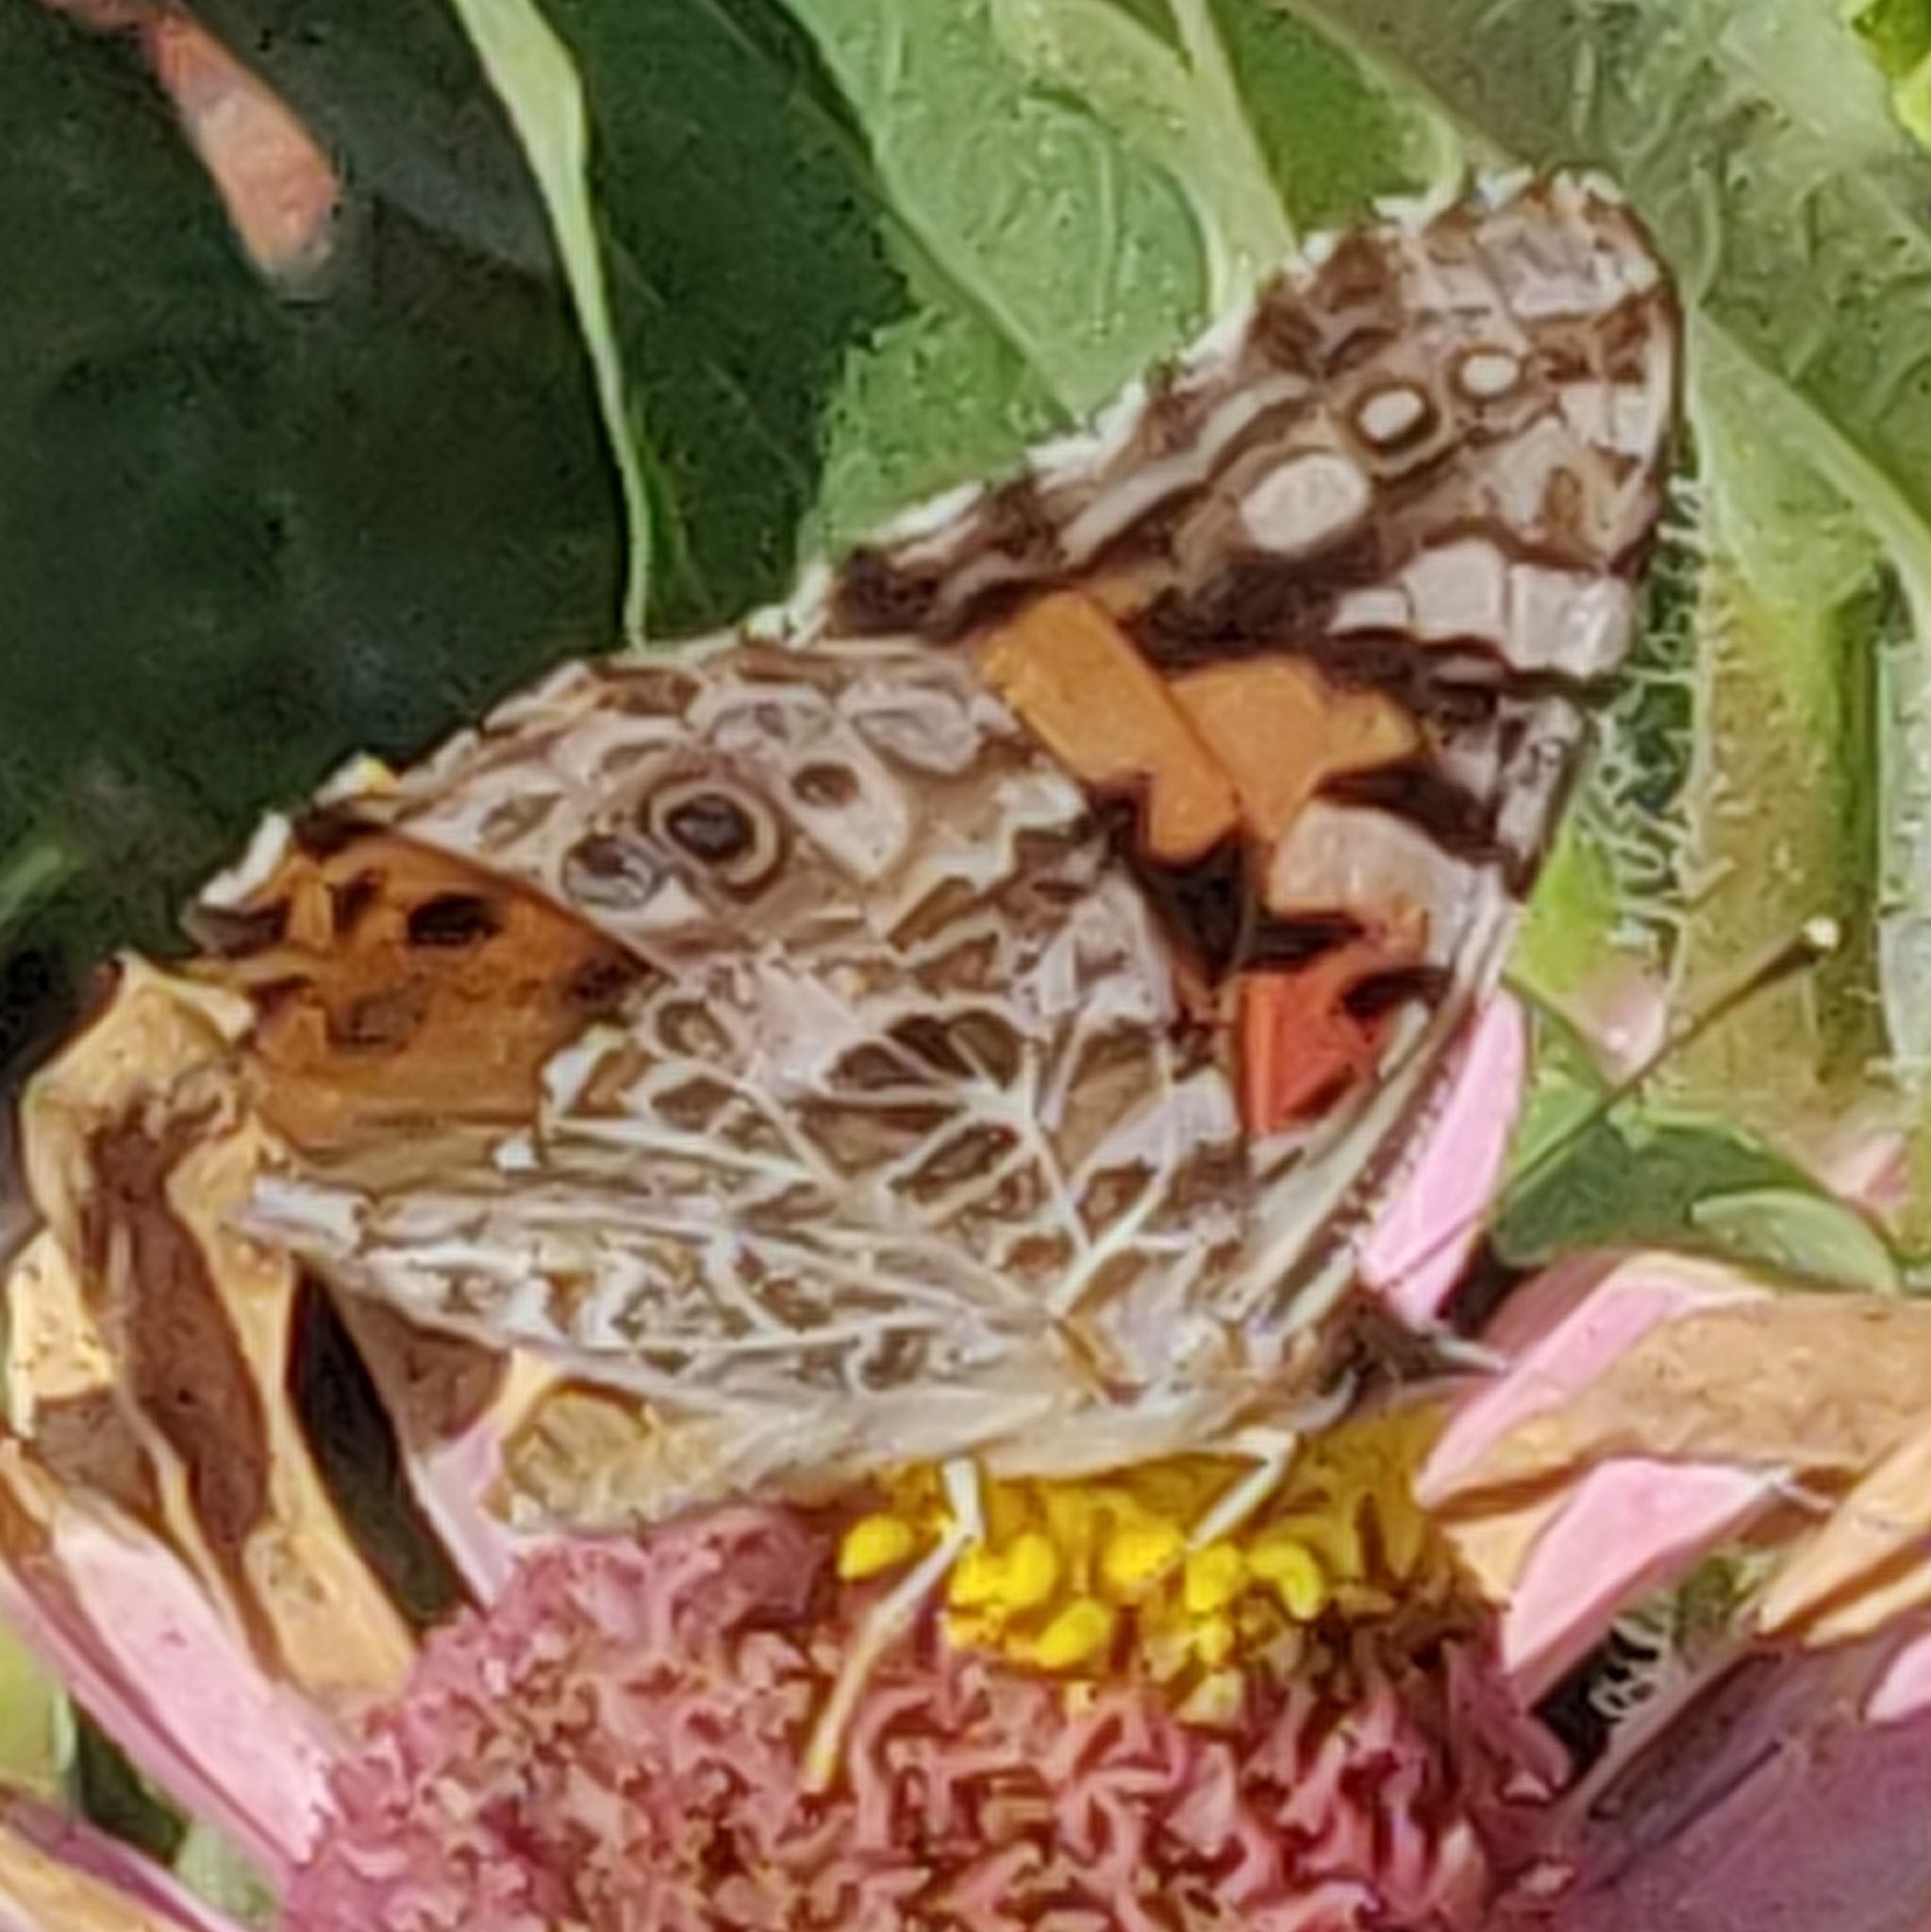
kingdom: Animalia
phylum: Arthropoda
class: Insecta
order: Lepidoptera
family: Nymphalidae
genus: Vanessa
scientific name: Vanessa cardui
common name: Painted lady
